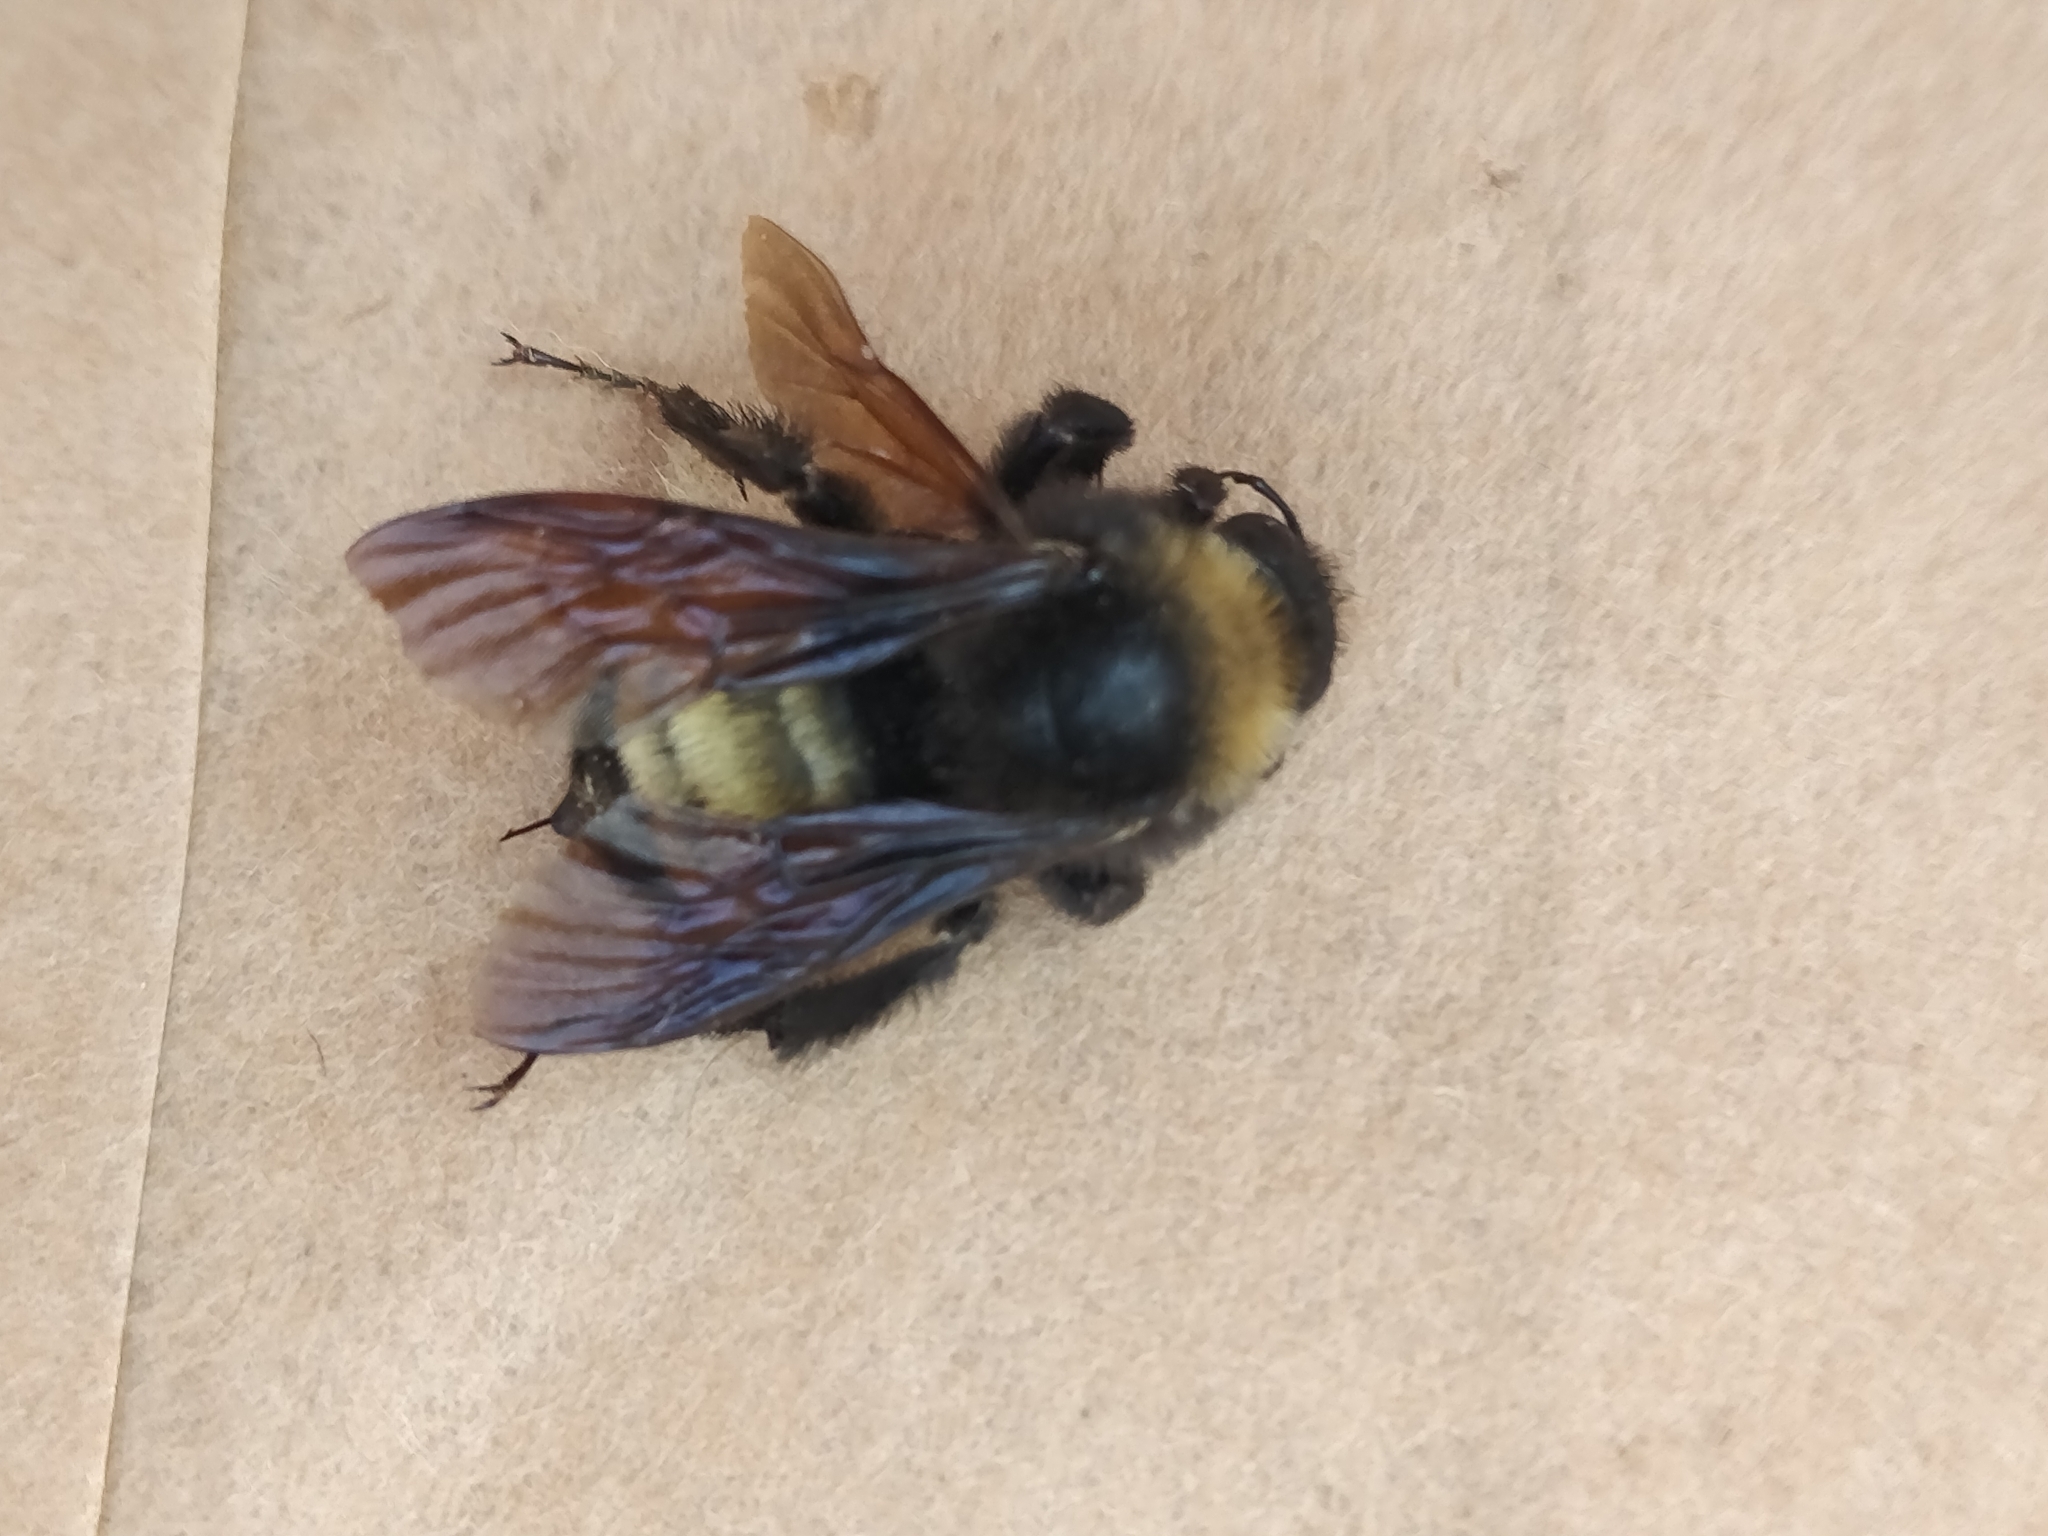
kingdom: Animalia
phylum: Arthropoda
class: Insecta
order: Hymenoptera
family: Apidae
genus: Bombus
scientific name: Bombus pensylvanicus
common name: Bumble bee
